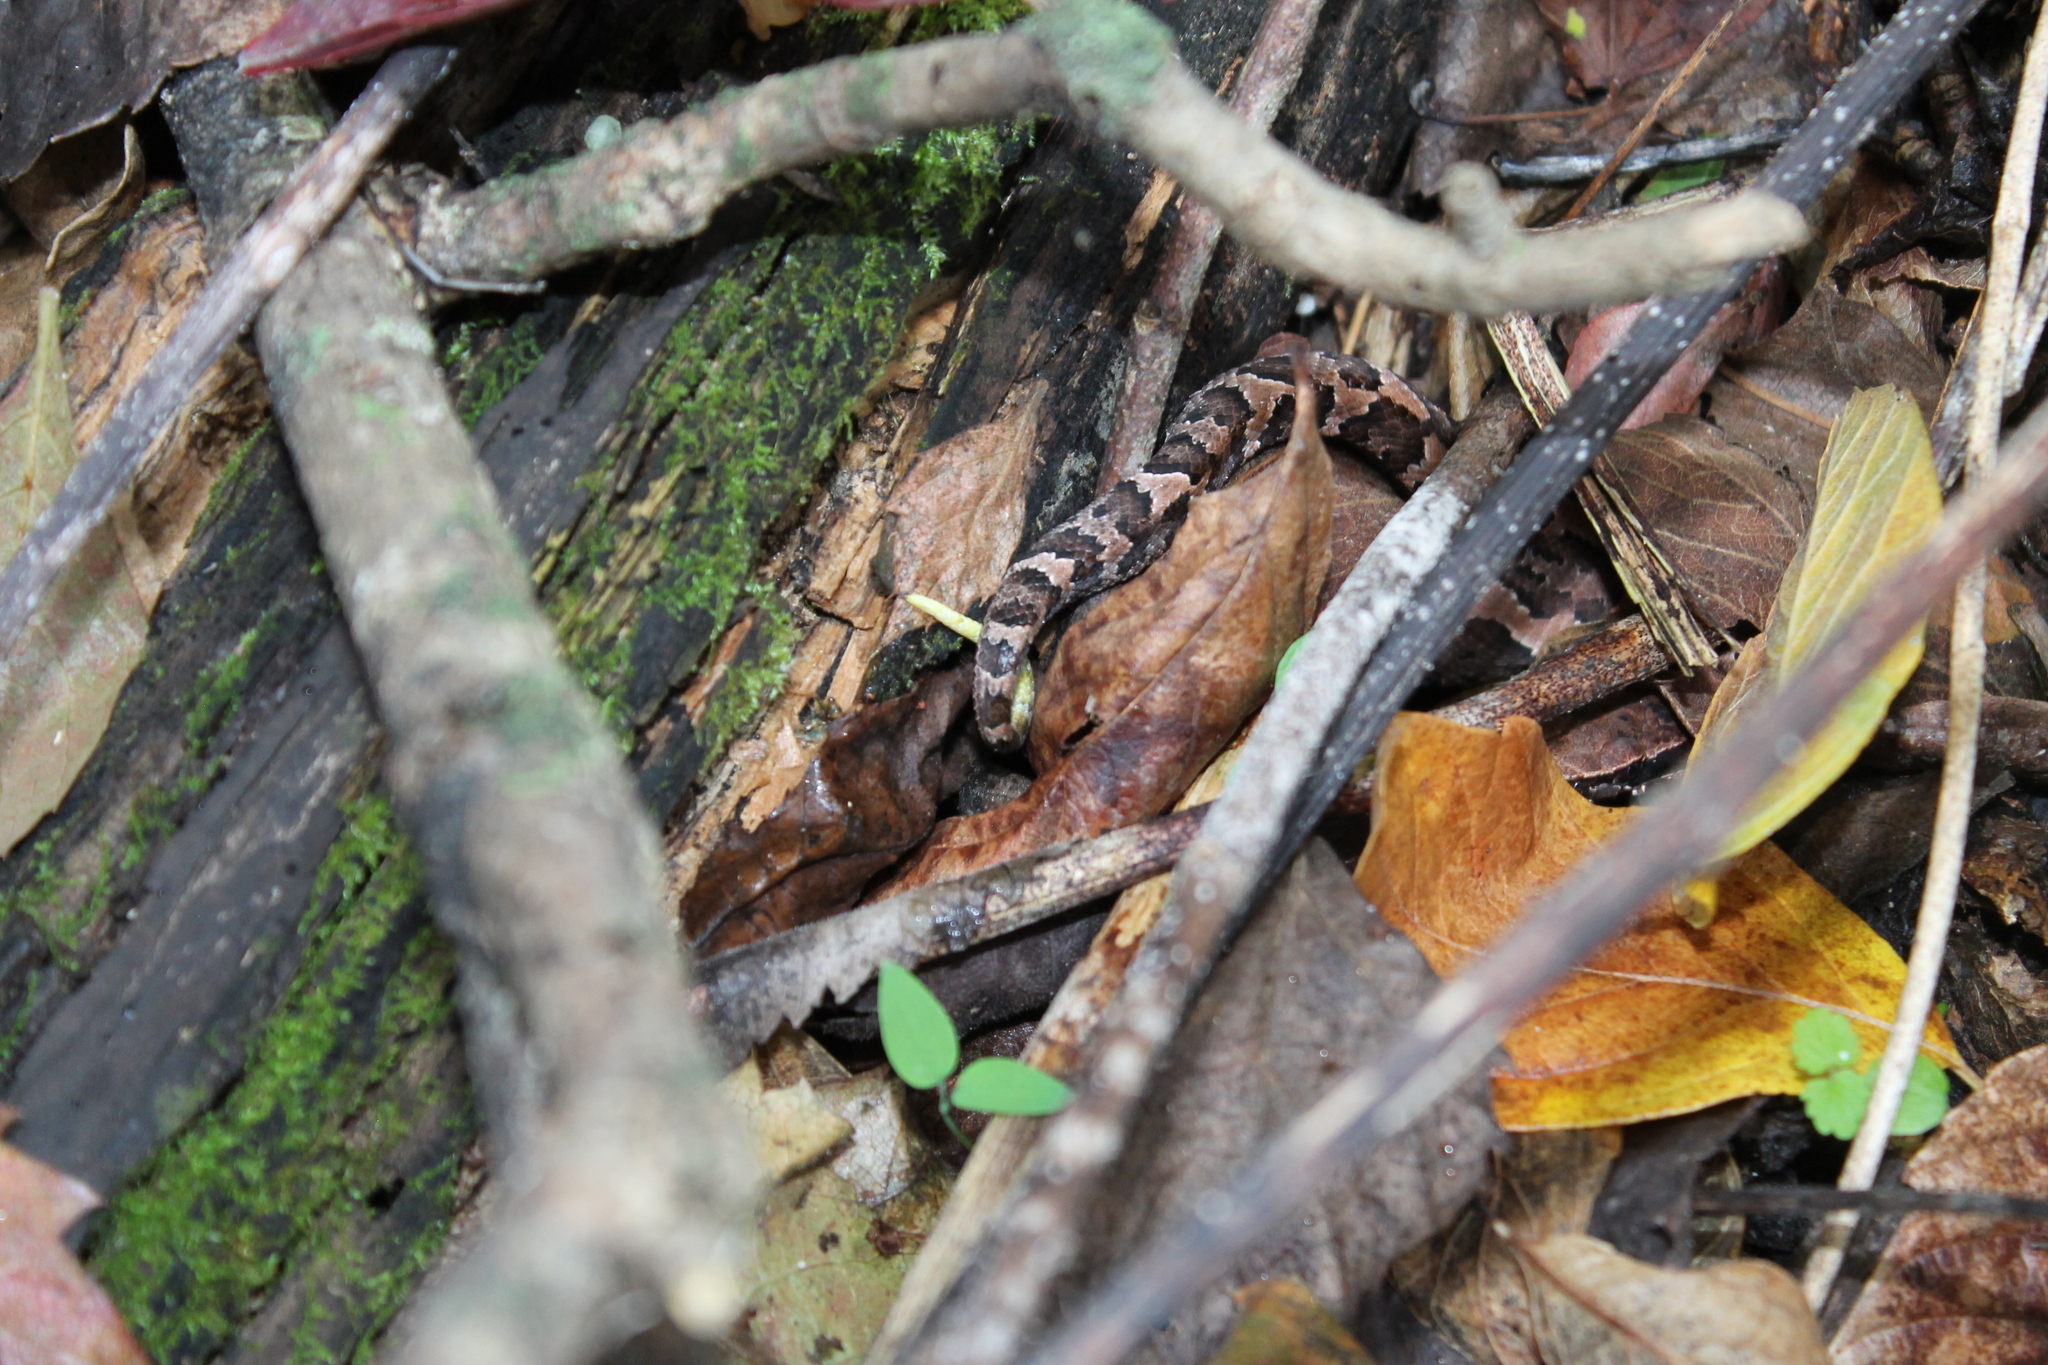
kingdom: Animalia
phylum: Chordata
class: Squamata
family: Viperidae
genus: Agkistrodon
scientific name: Agkistrodon piscivorus
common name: Cottonmouth
